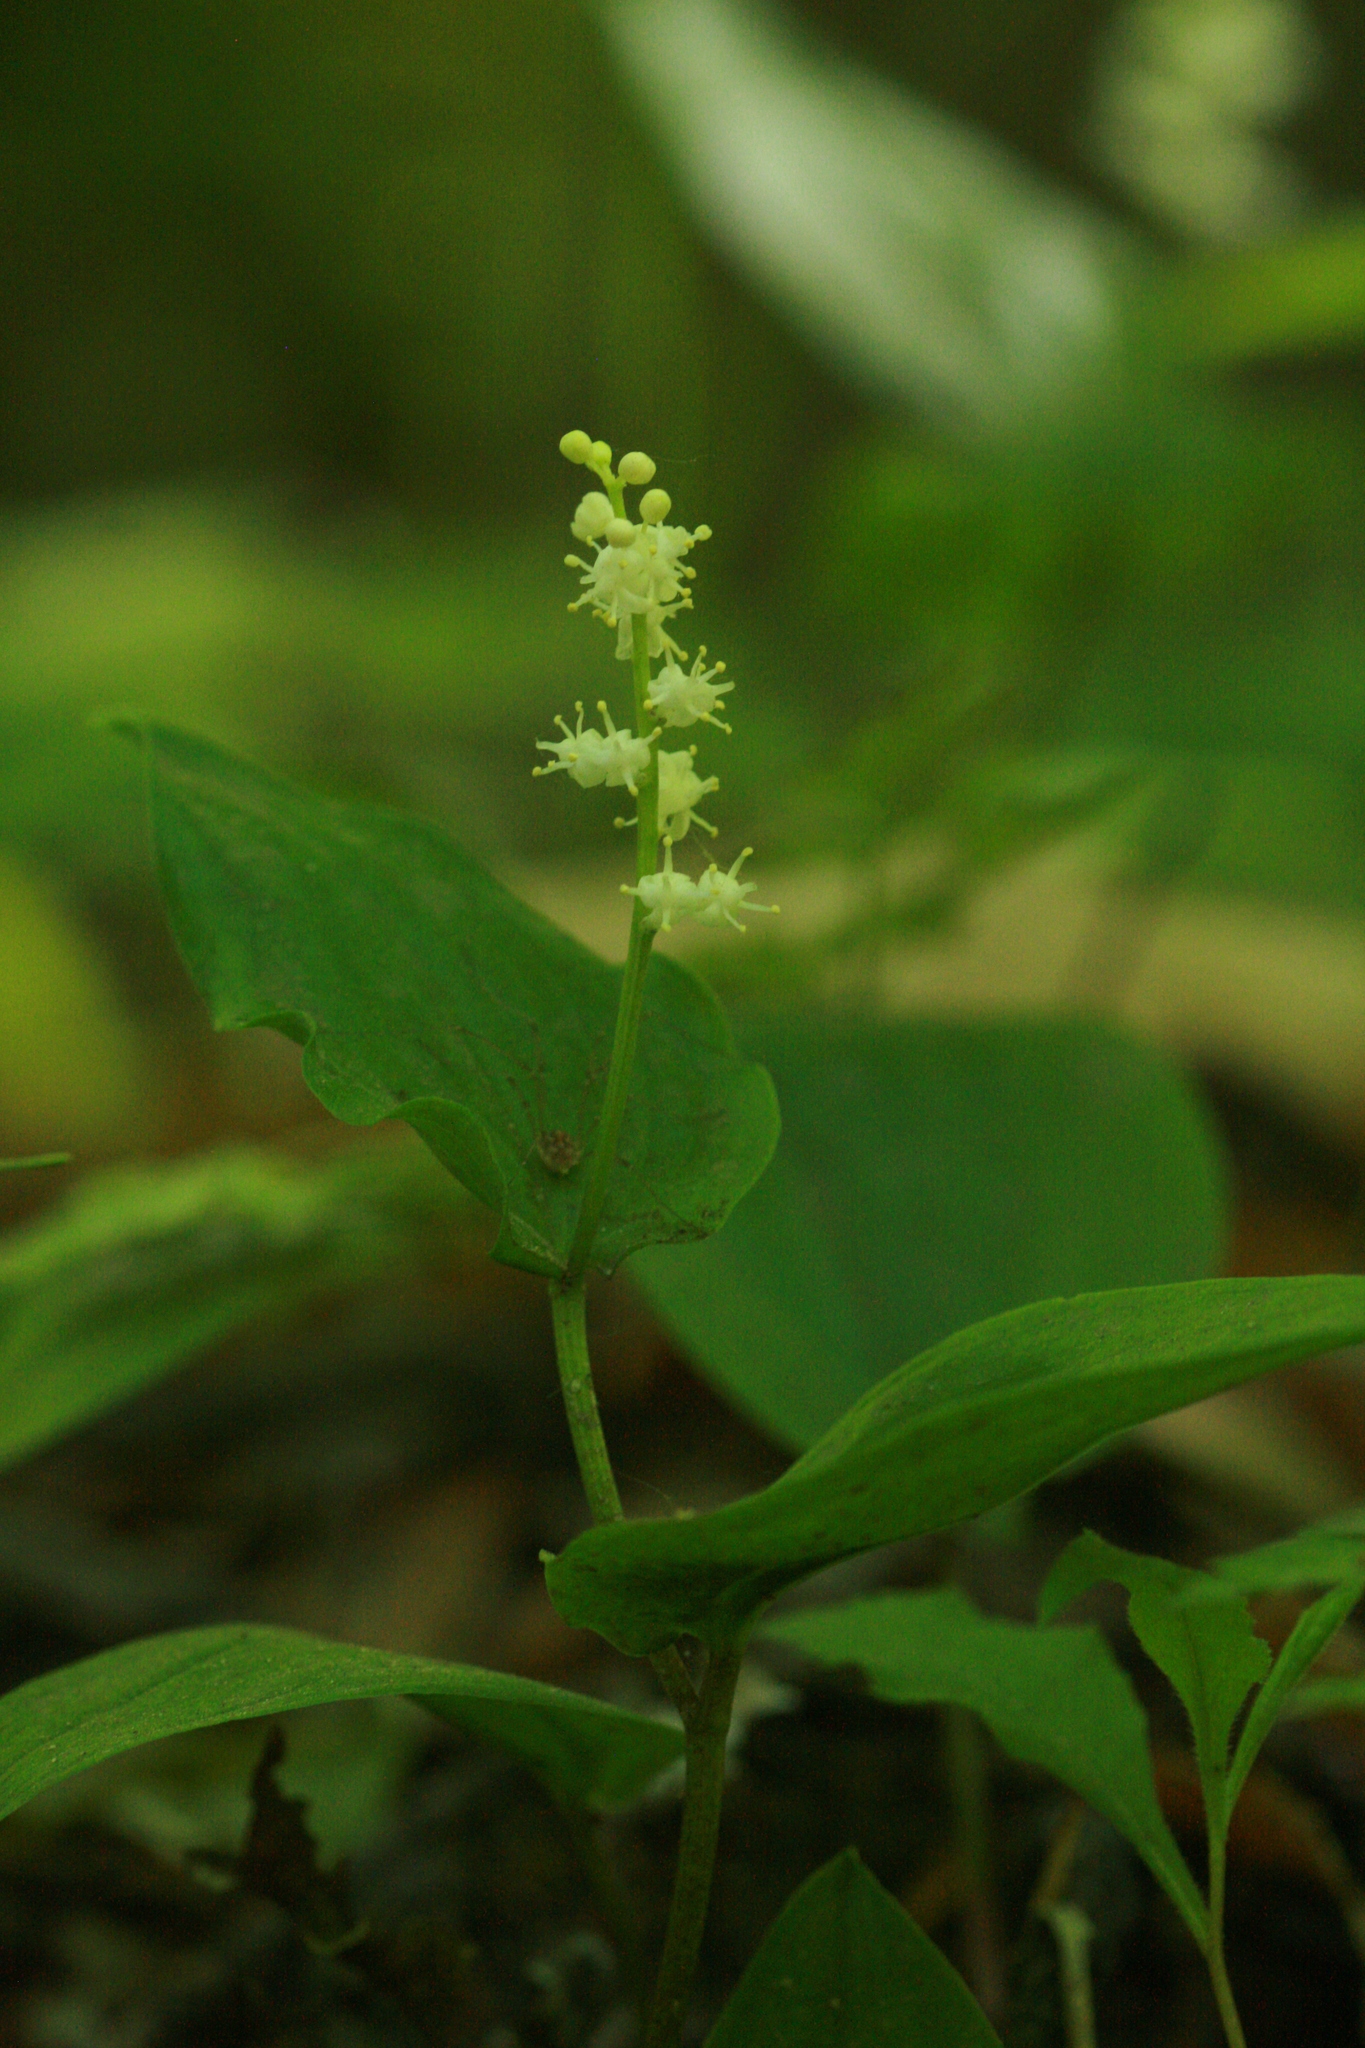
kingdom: Plantae
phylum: Tracheophyta
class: Liliopsida
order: Asparagales
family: Asparagaceae
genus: Maianthemum
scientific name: Maianthemum canadense
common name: False lily-of-the-valley
